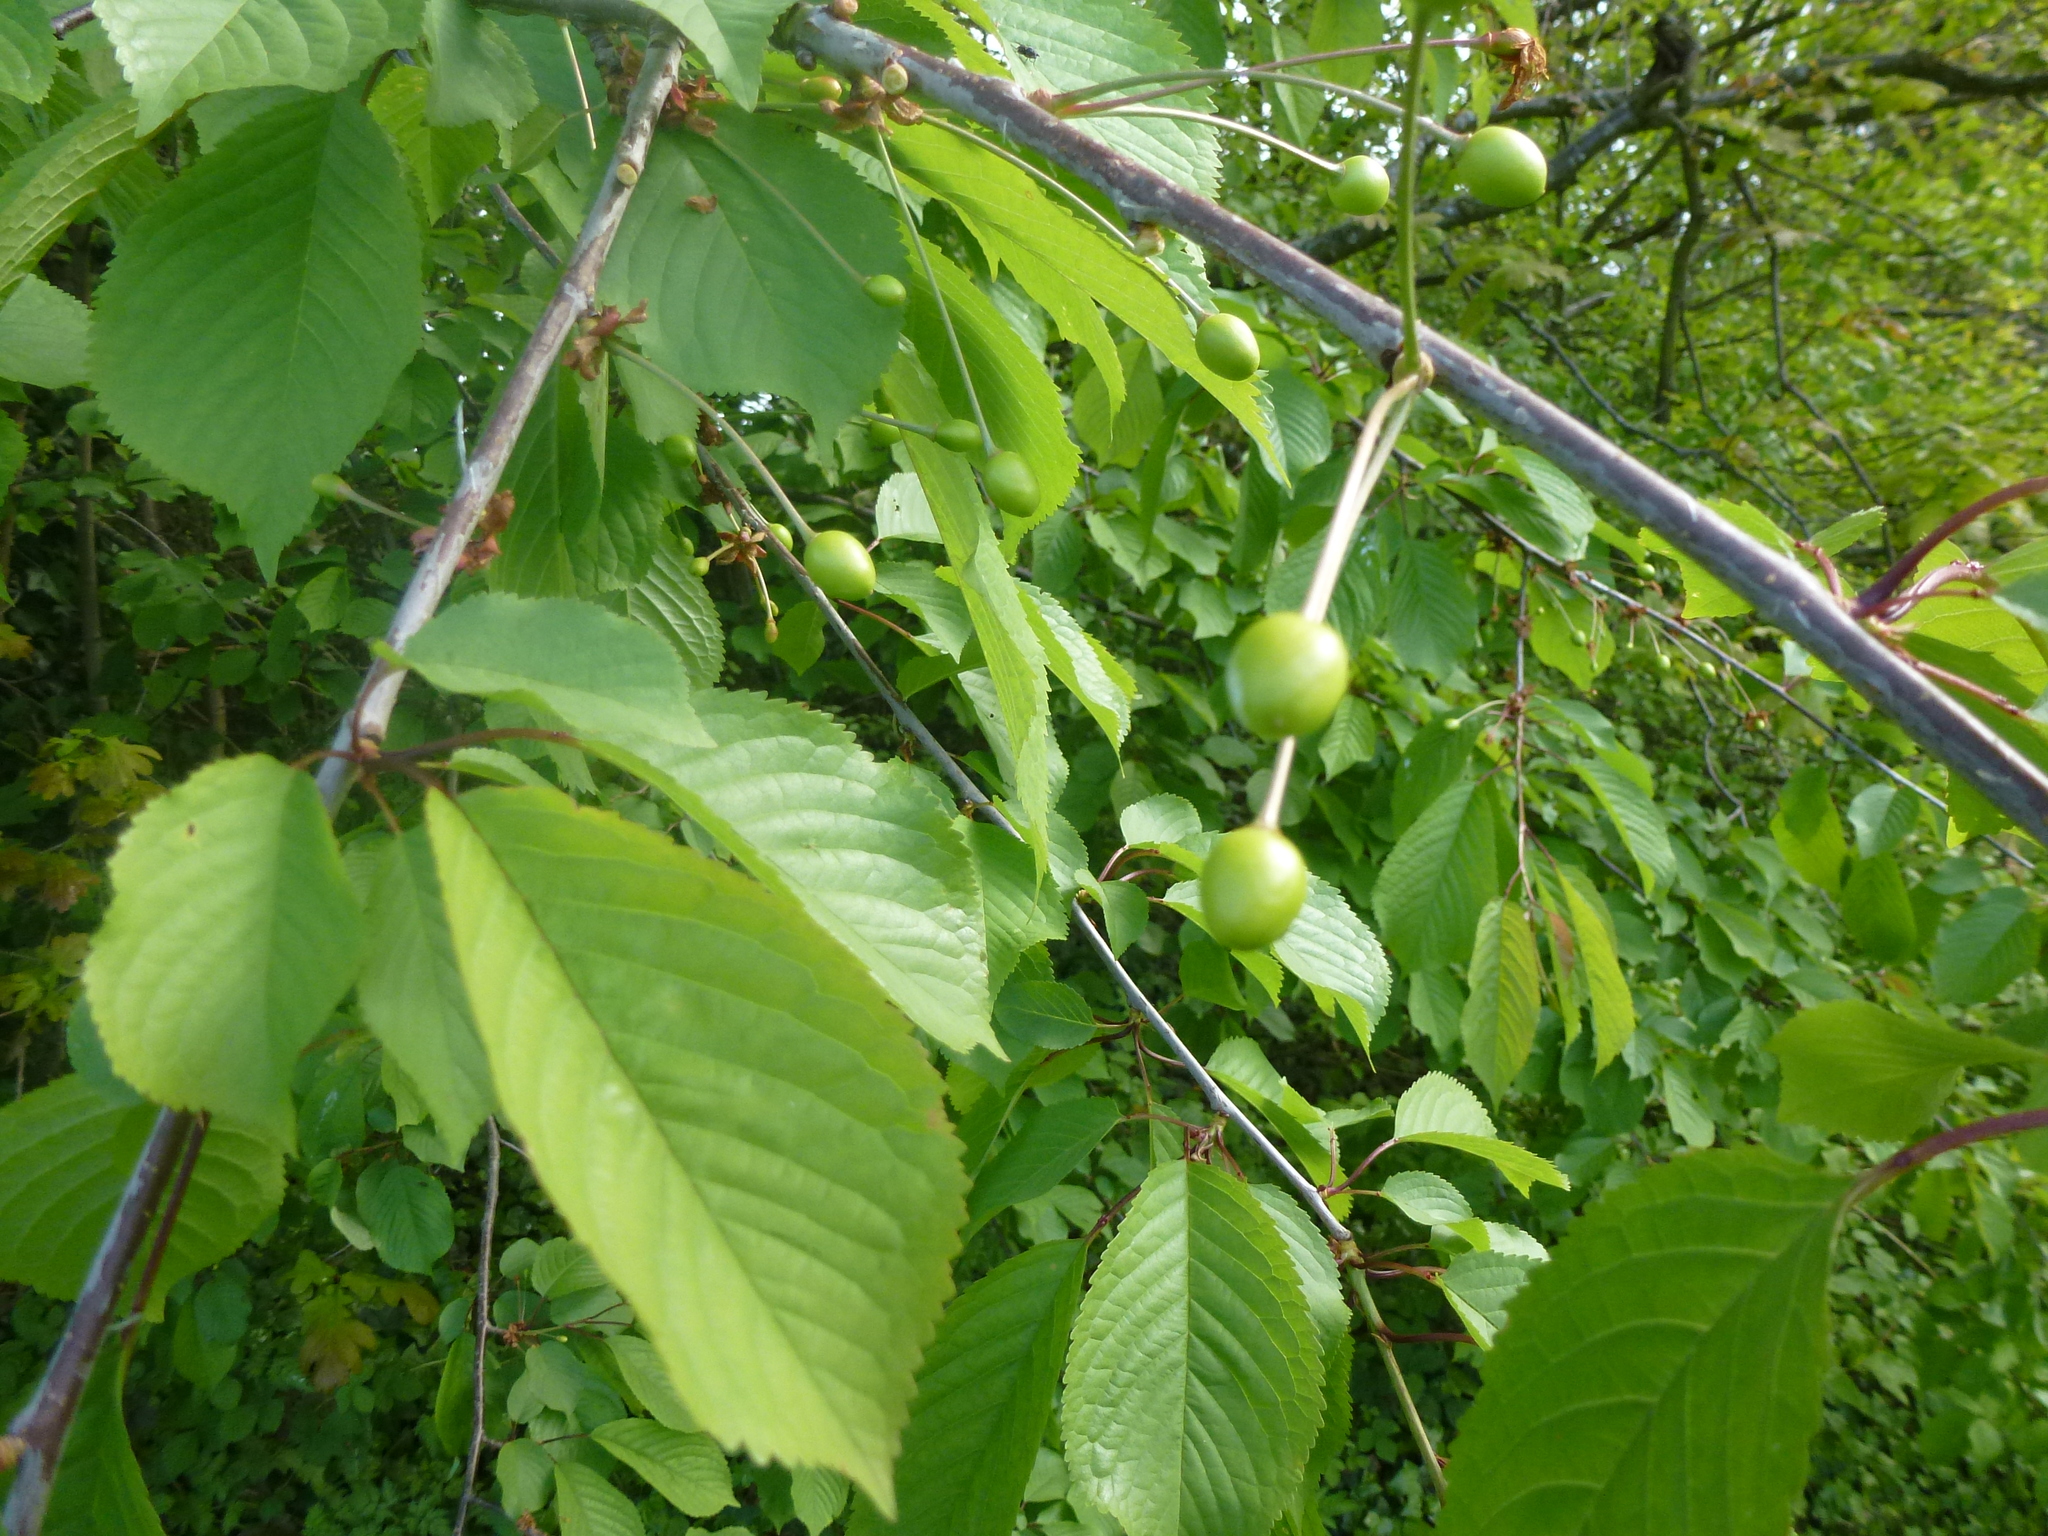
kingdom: Plantae
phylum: Tracheophyta
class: Magnoliopsida
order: Rosales
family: Rosaceae
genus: Prunus
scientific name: Prunus avium
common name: Sweet cherry
